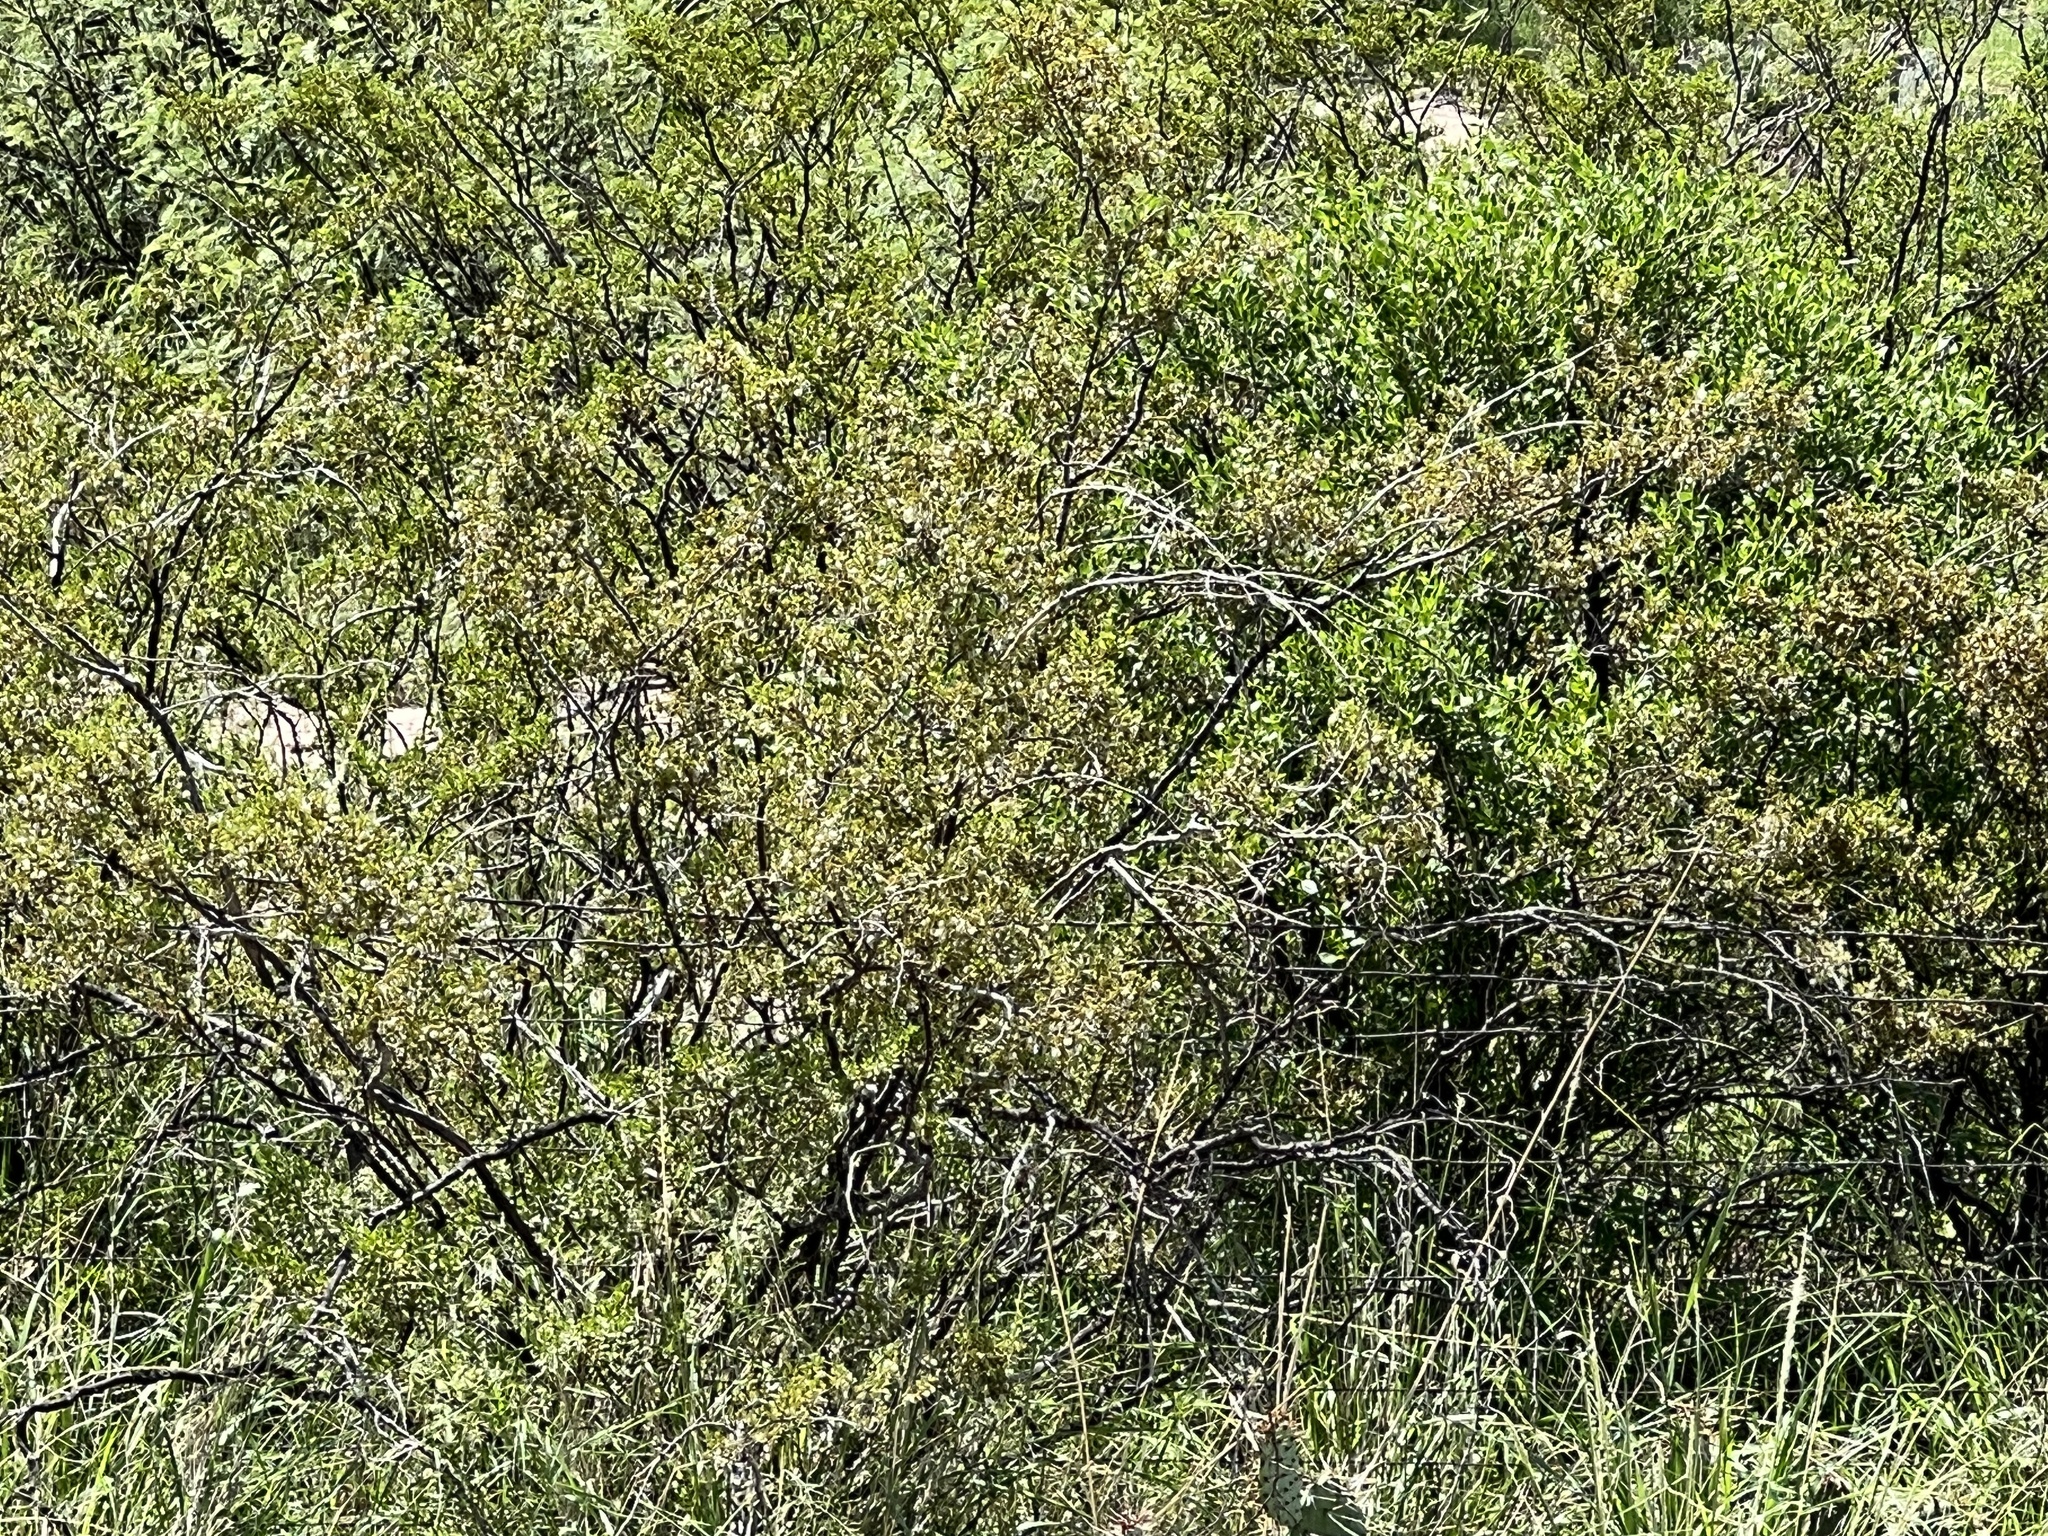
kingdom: Plantae
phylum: Tracheophyta
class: Magnoliopsida
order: Zygophyllales
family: Zygophyllaceae
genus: Larrea
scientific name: Larrea tridentata
